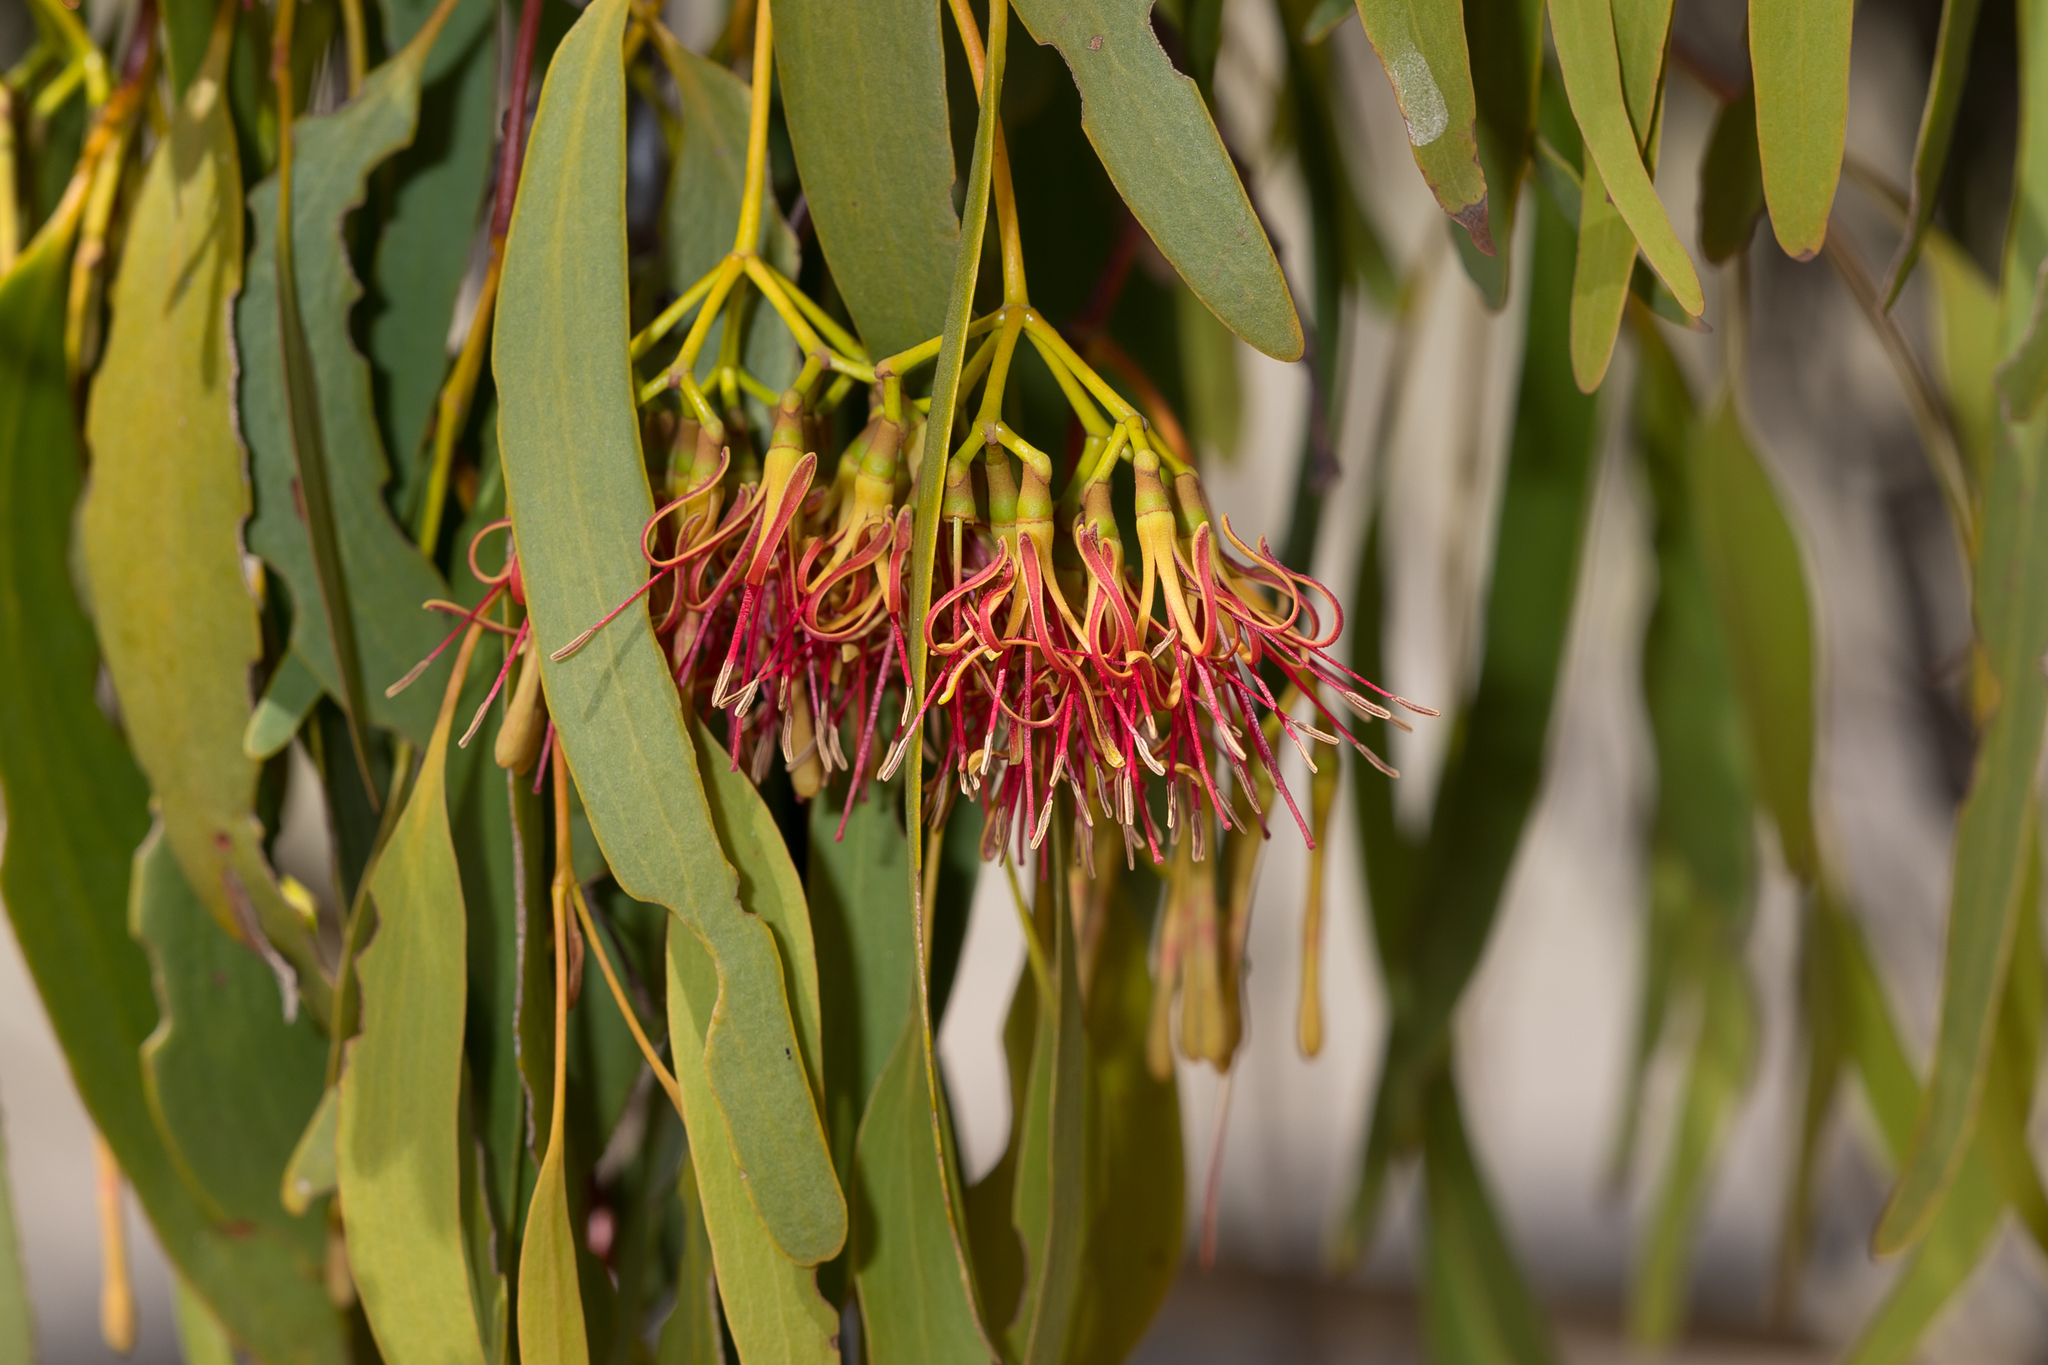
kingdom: Plantae
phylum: Tracheophyta
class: Magnoliopsida
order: Santalales
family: Loranthaceae
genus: Amyema
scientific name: Amyema miquelii
